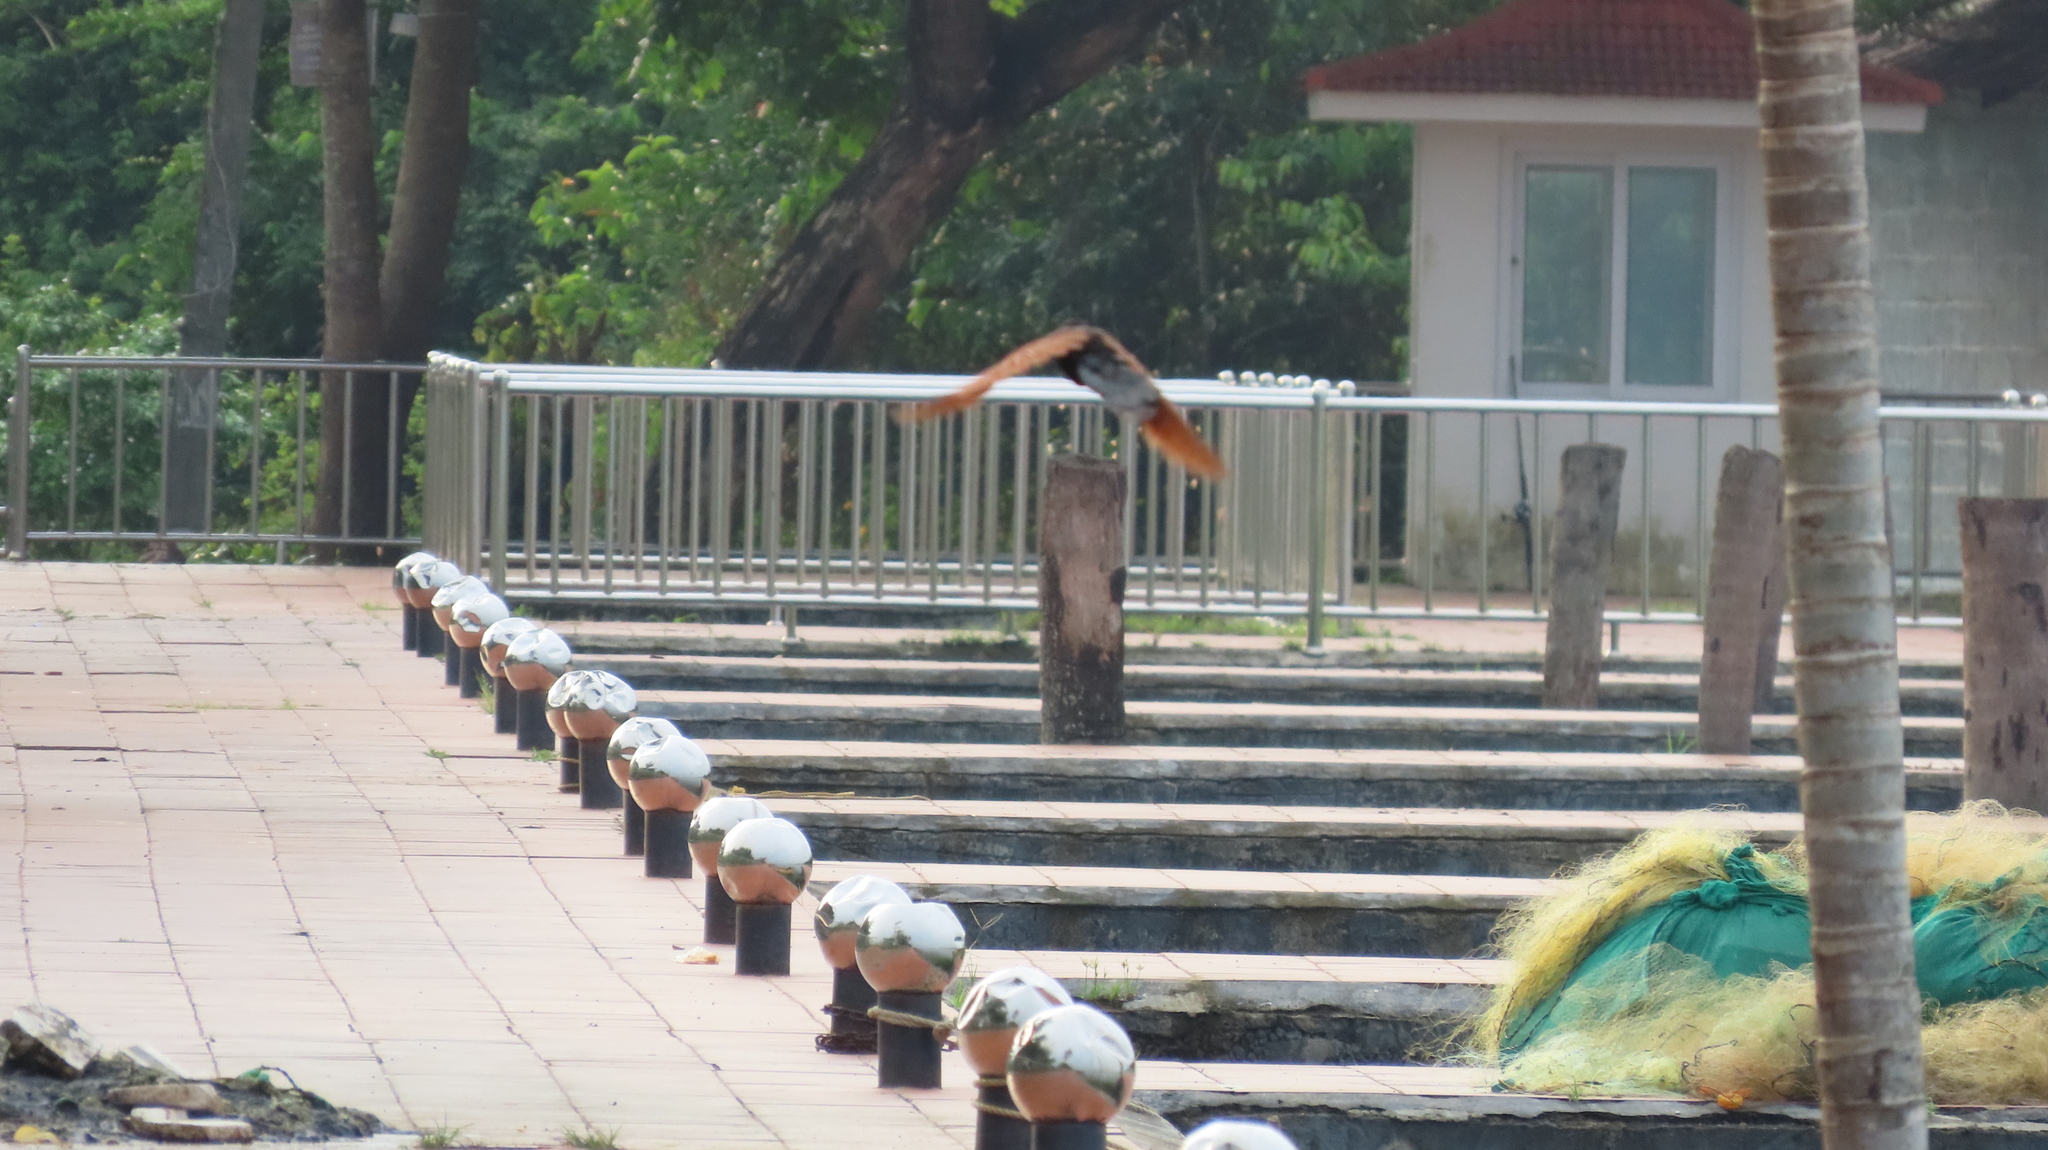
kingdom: Animalia
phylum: Chordata
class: Aves
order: Cuculiformes
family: Cuculidae
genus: Centropus
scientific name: Centropus sinensis
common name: Greater coucal
